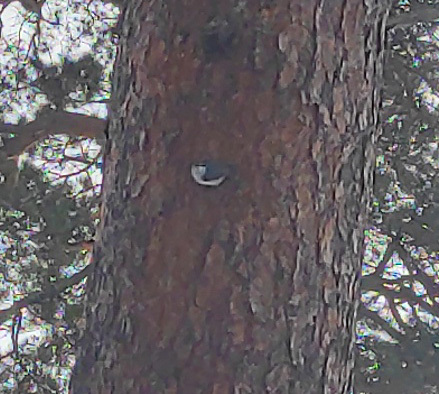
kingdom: Animalia
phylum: Chordata
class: Aves
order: Passeriformes
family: Sittidae
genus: Sitta
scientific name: Sitta europaea
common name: Eurasian nuthatch
